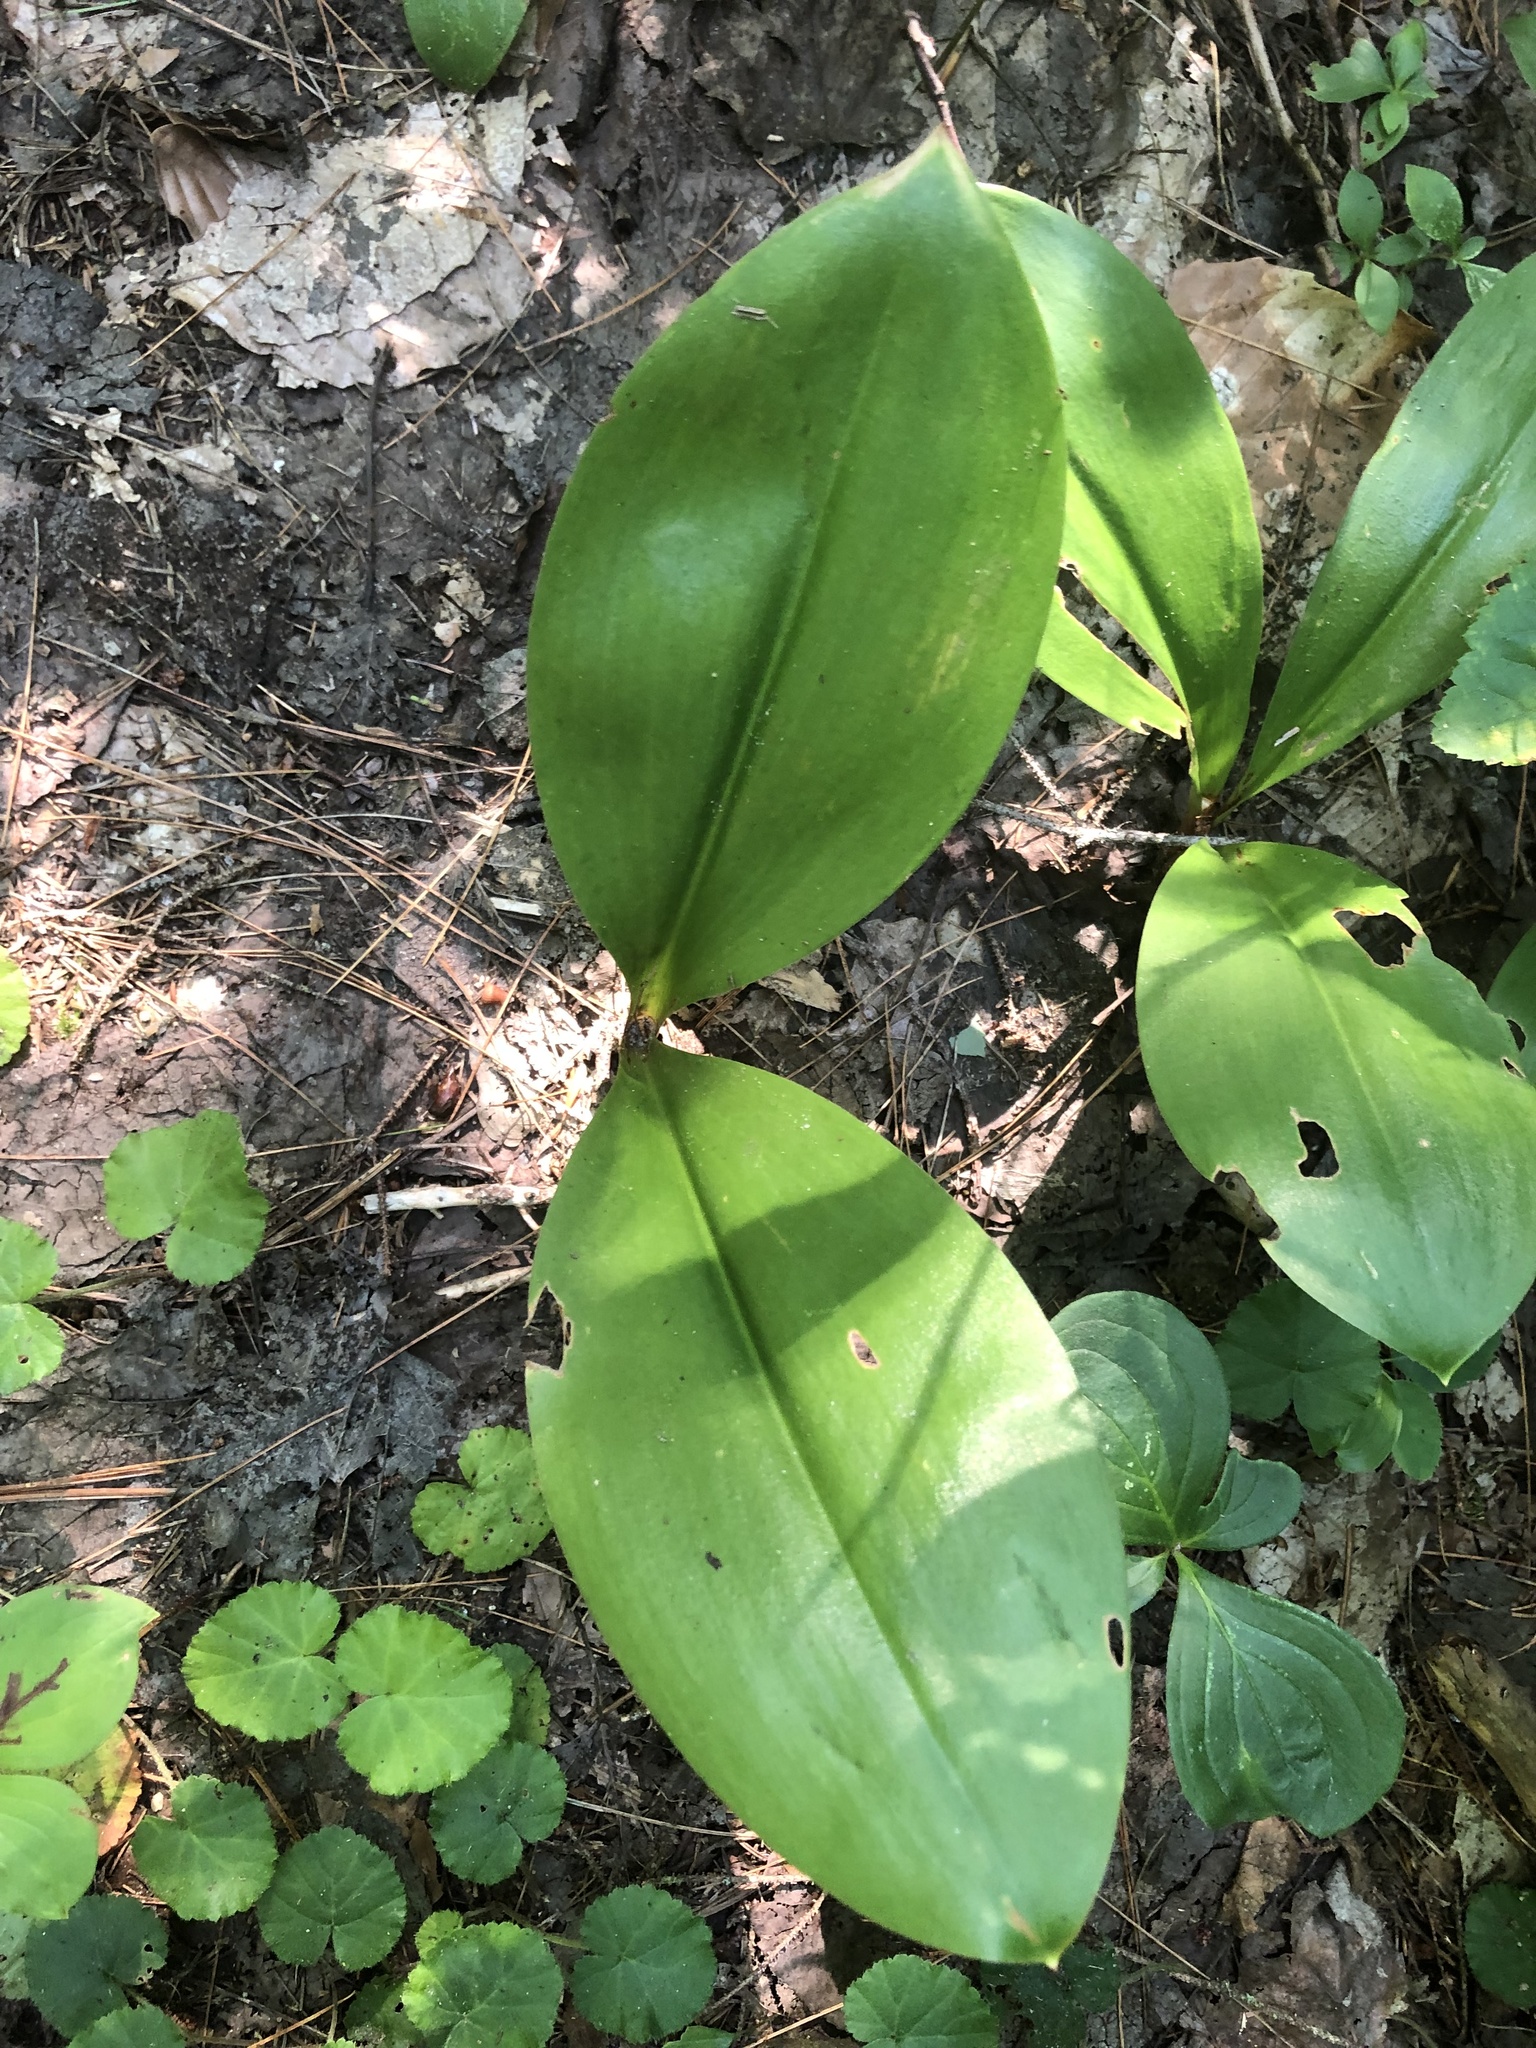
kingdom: Plantae
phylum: Tracheophyta
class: Liliopsida
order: Liliales
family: Liliaceae
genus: Clintonia
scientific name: Clintonia borealis
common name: Yellow clintonia
